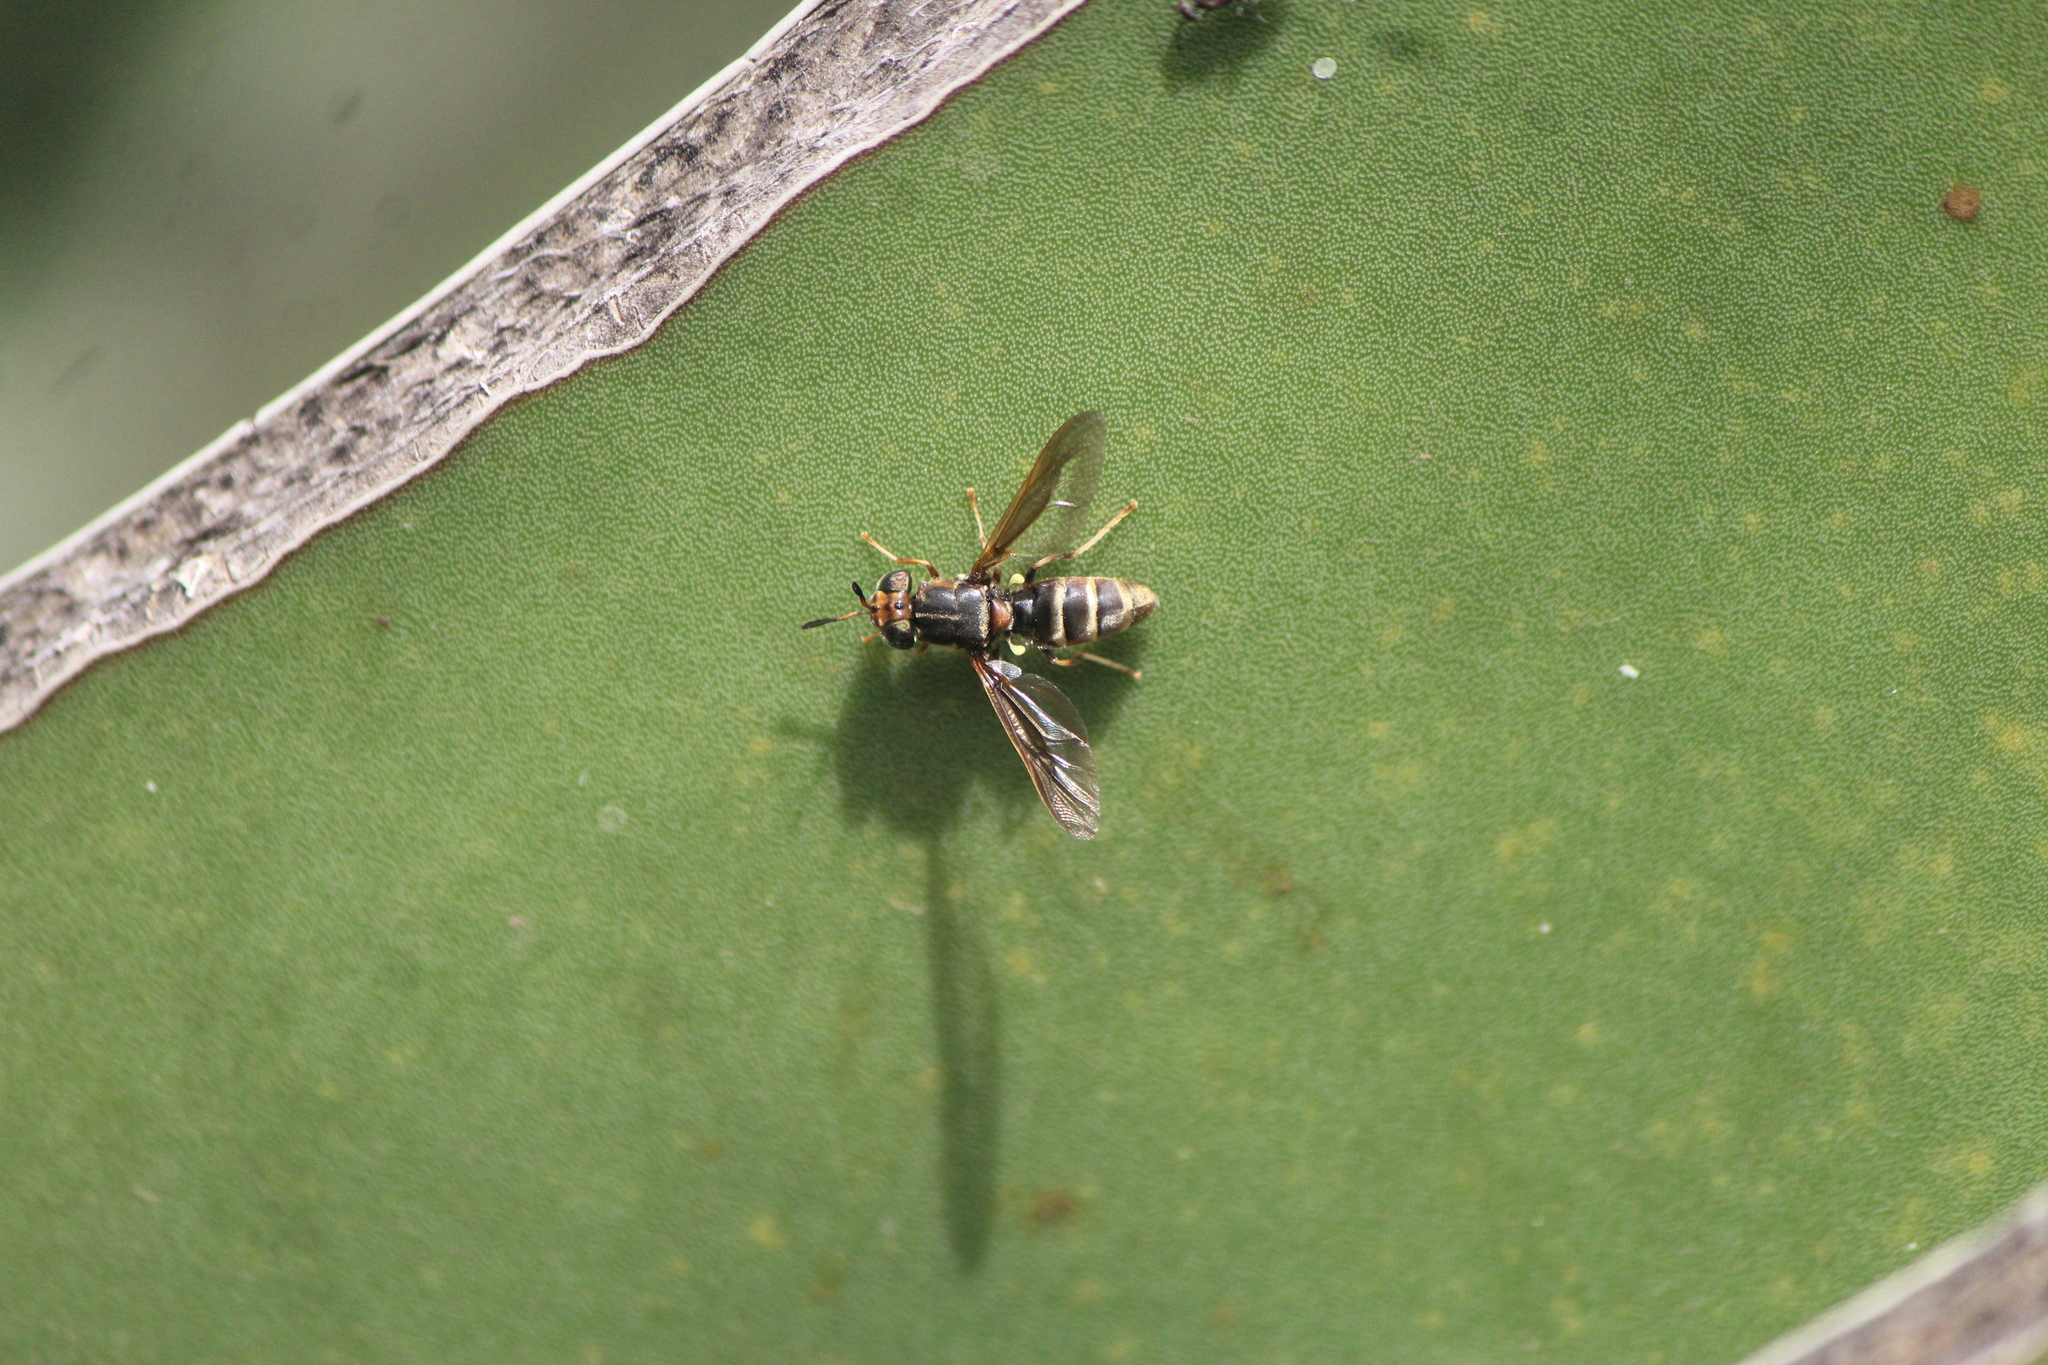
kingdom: Animalia
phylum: Arthropoda
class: Insecta
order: Diptera
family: Stratiomyidae
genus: Hermetia
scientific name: Hermetia comstocki
